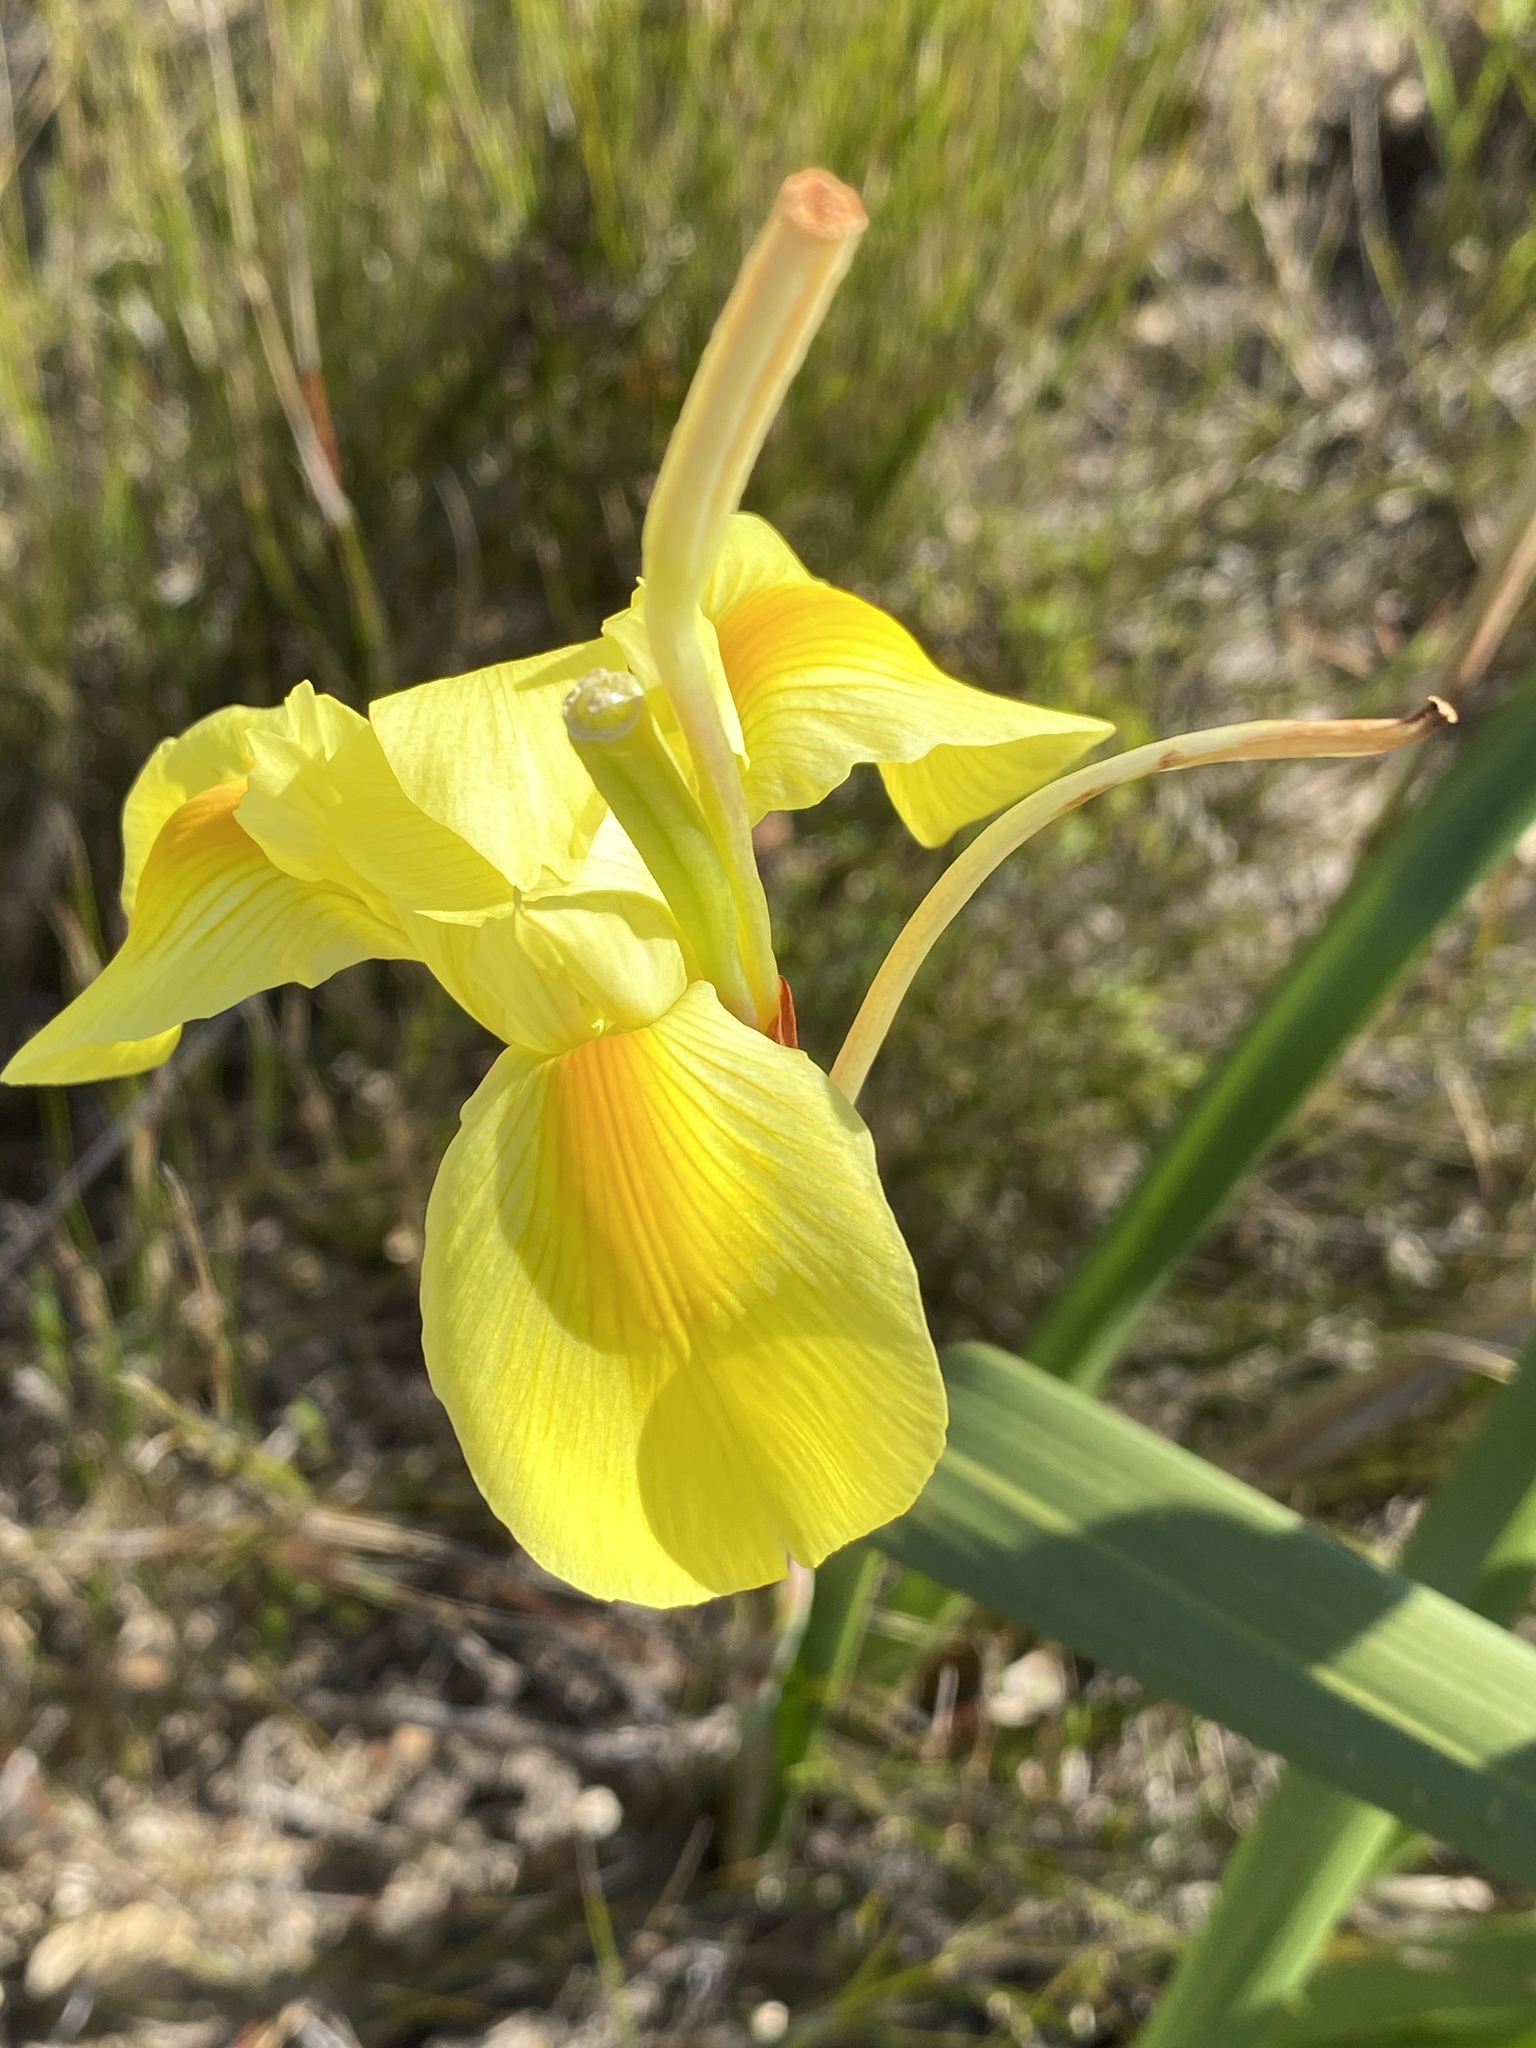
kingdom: Plantae
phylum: Tracheophyta
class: Liliopsida
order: Asparagales
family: Iridaceae
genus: Moraea
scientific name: Moraea spathulata
